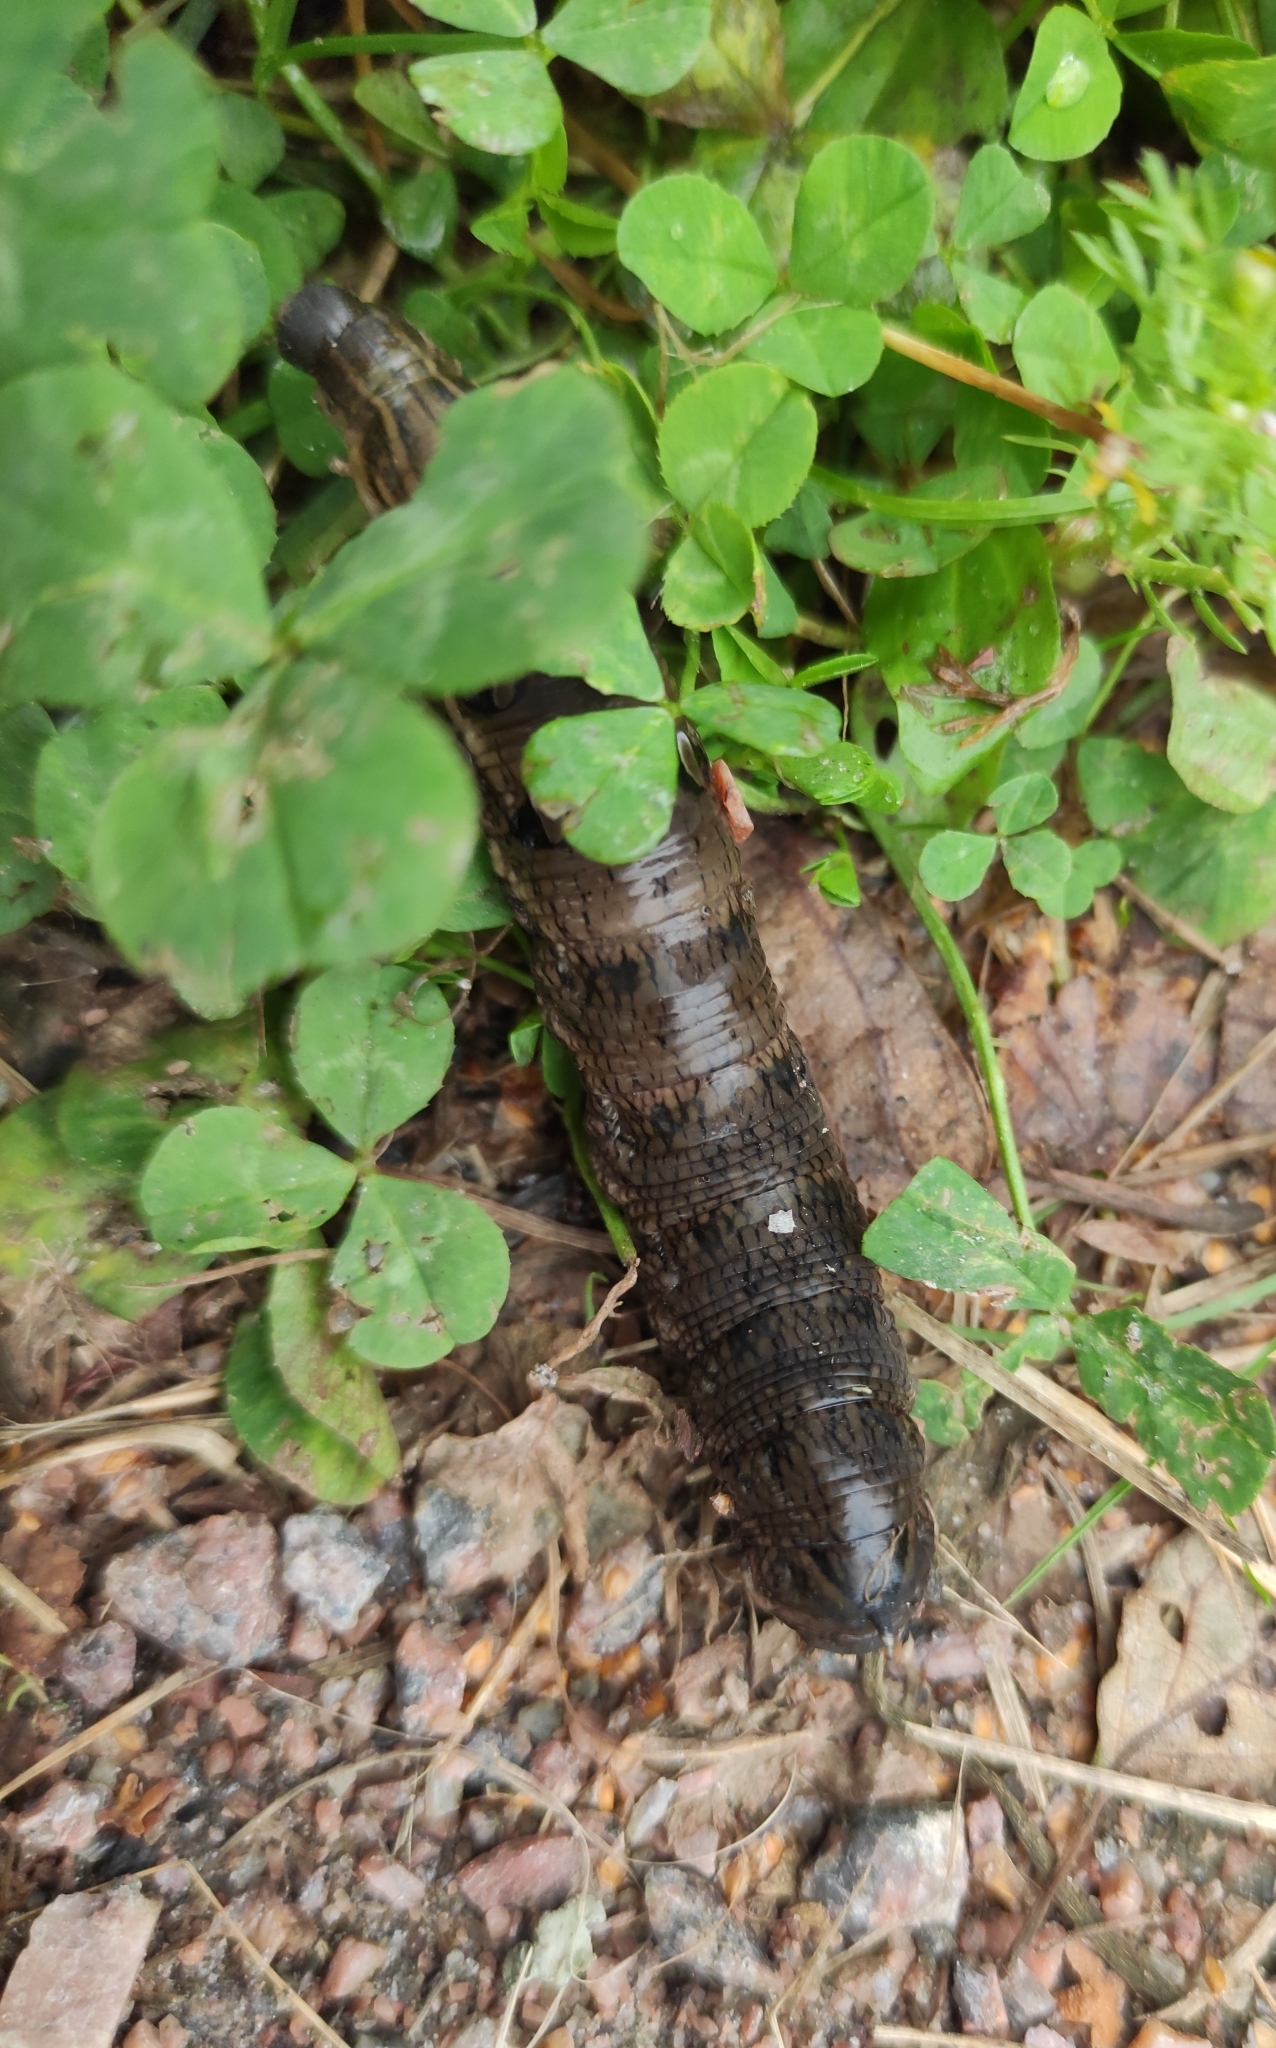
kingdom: Animalia
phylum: Arthropoda
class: Insecta
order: Lepidoptera
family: Sphingidae
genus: Deilephila
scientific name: Deilephila elpenor
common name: Elephant hawk-moth
